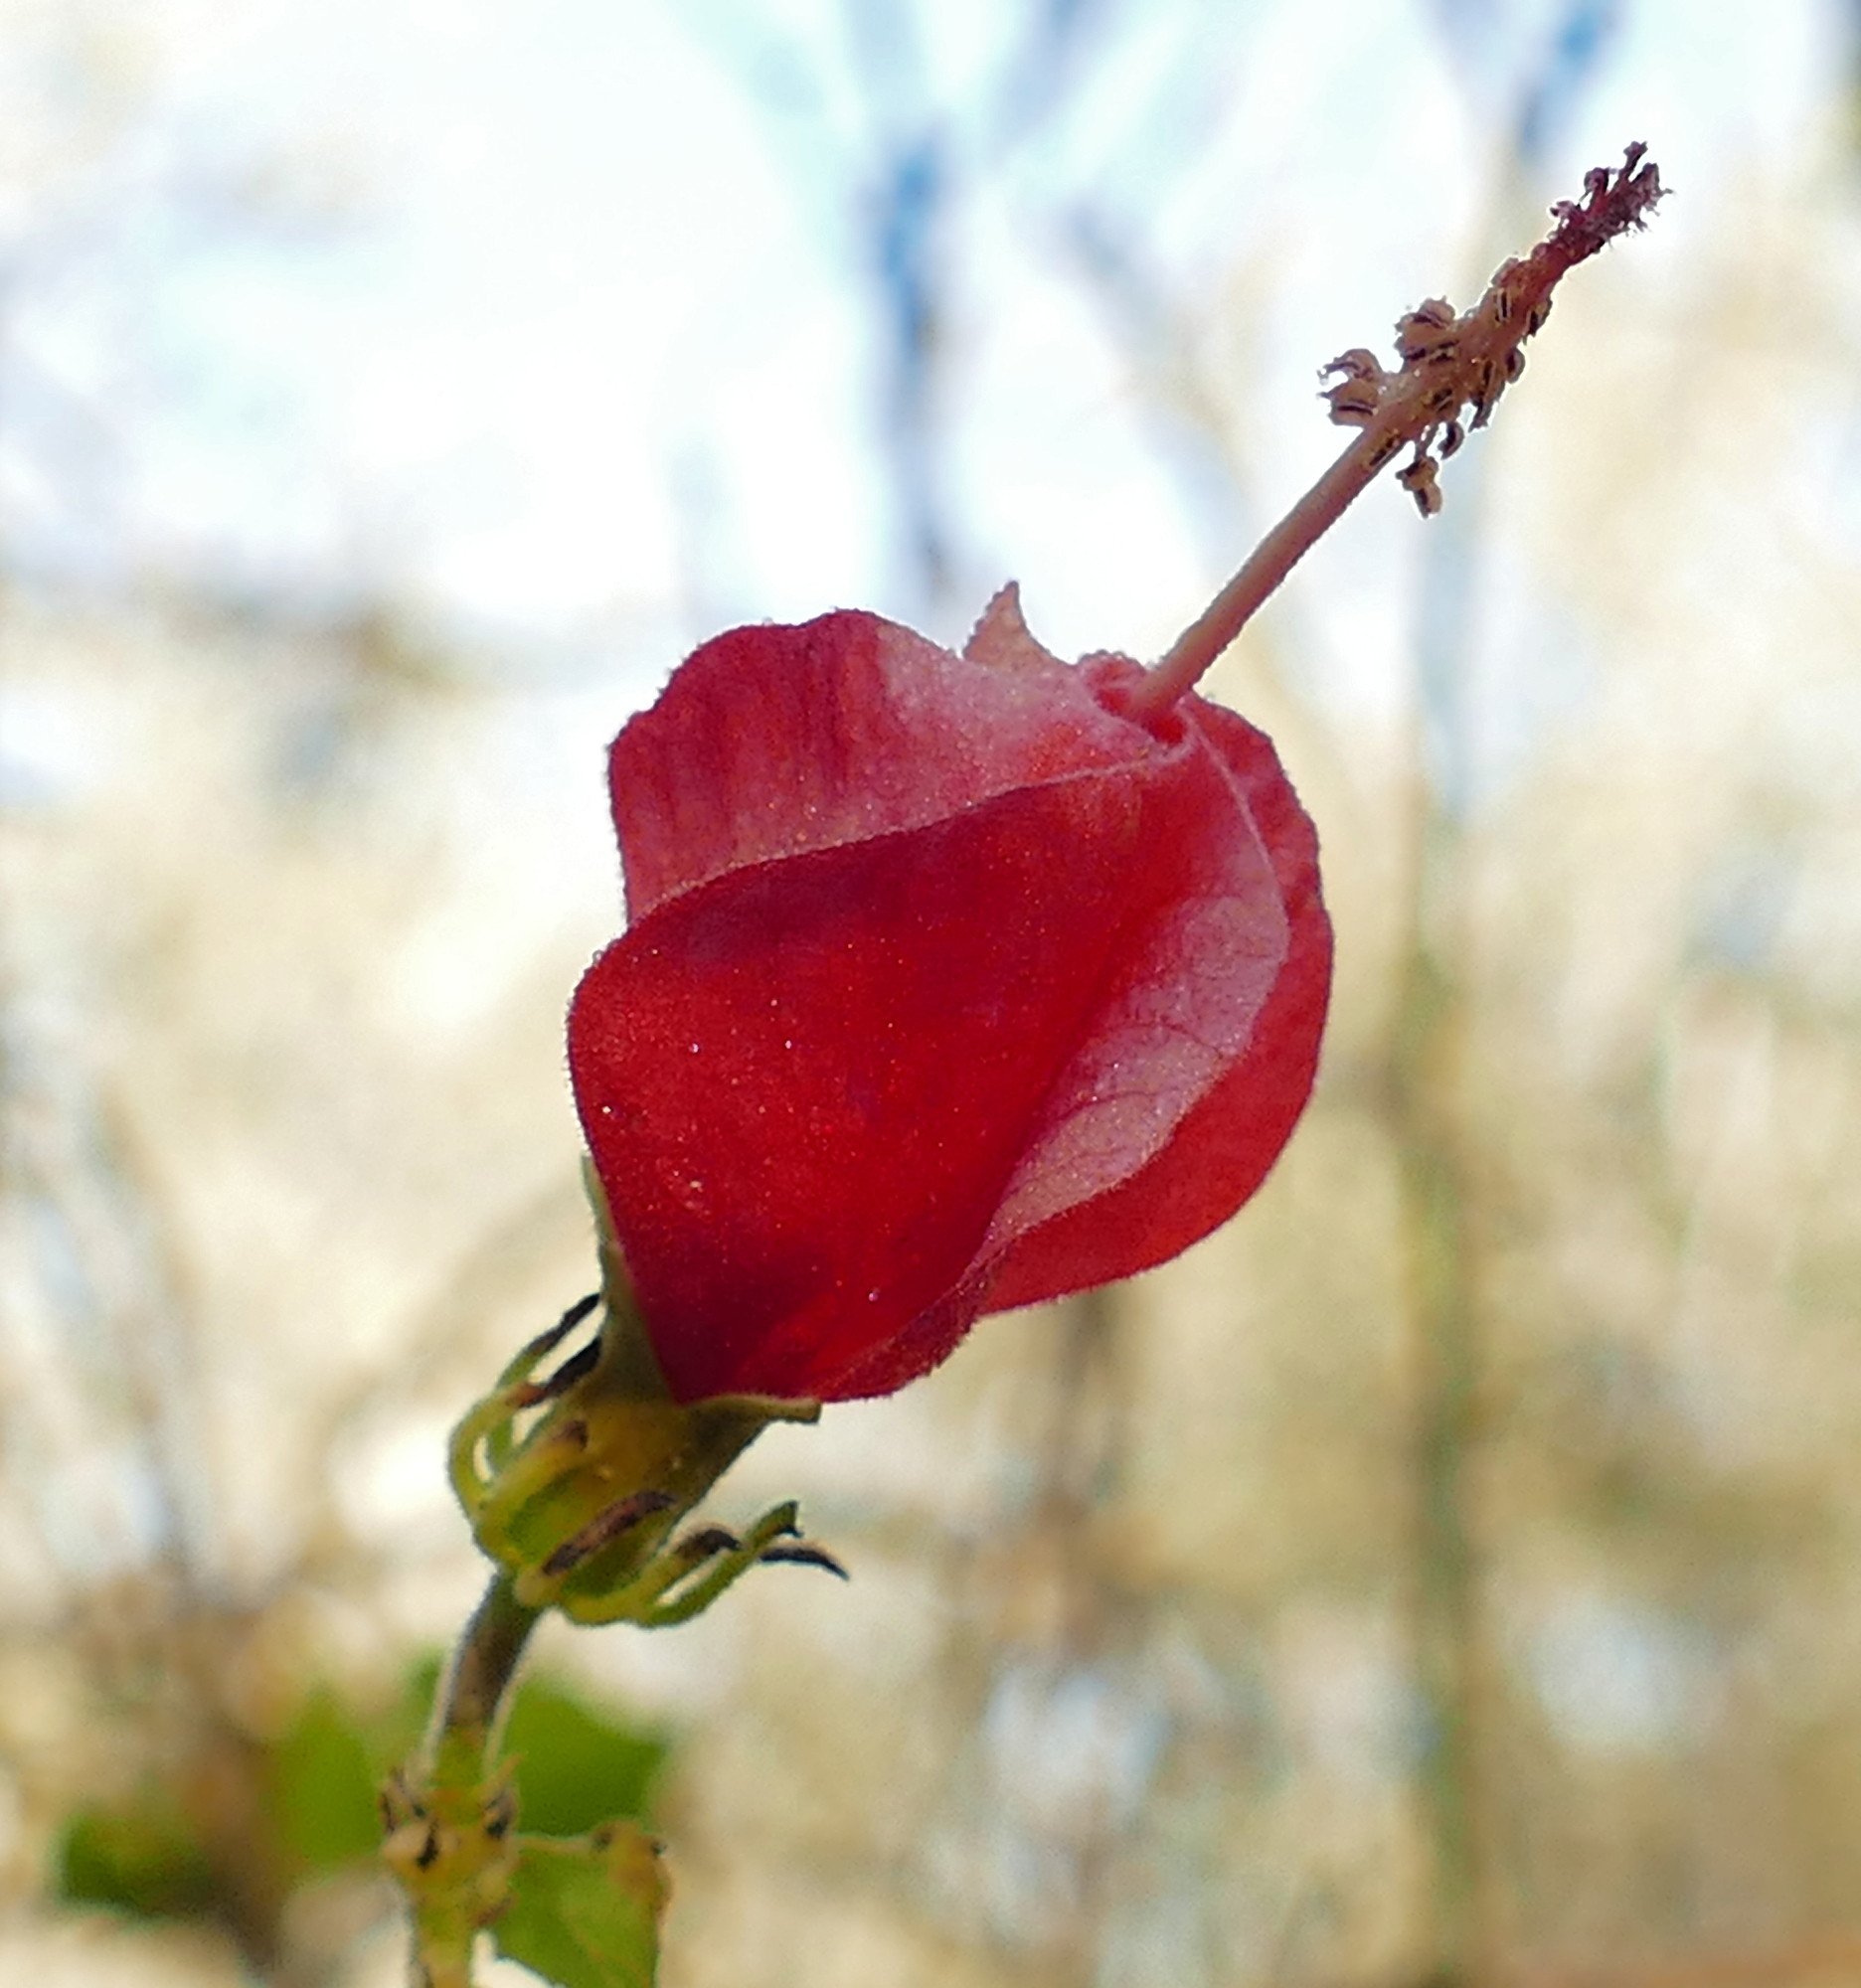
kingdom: Plantae
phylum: Tracheophyta
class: Magnoliopsida
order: Malvales
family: Malvaceae
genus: Malvaviscus
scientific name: Malvaviscus arboreus
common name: Wax mallow
